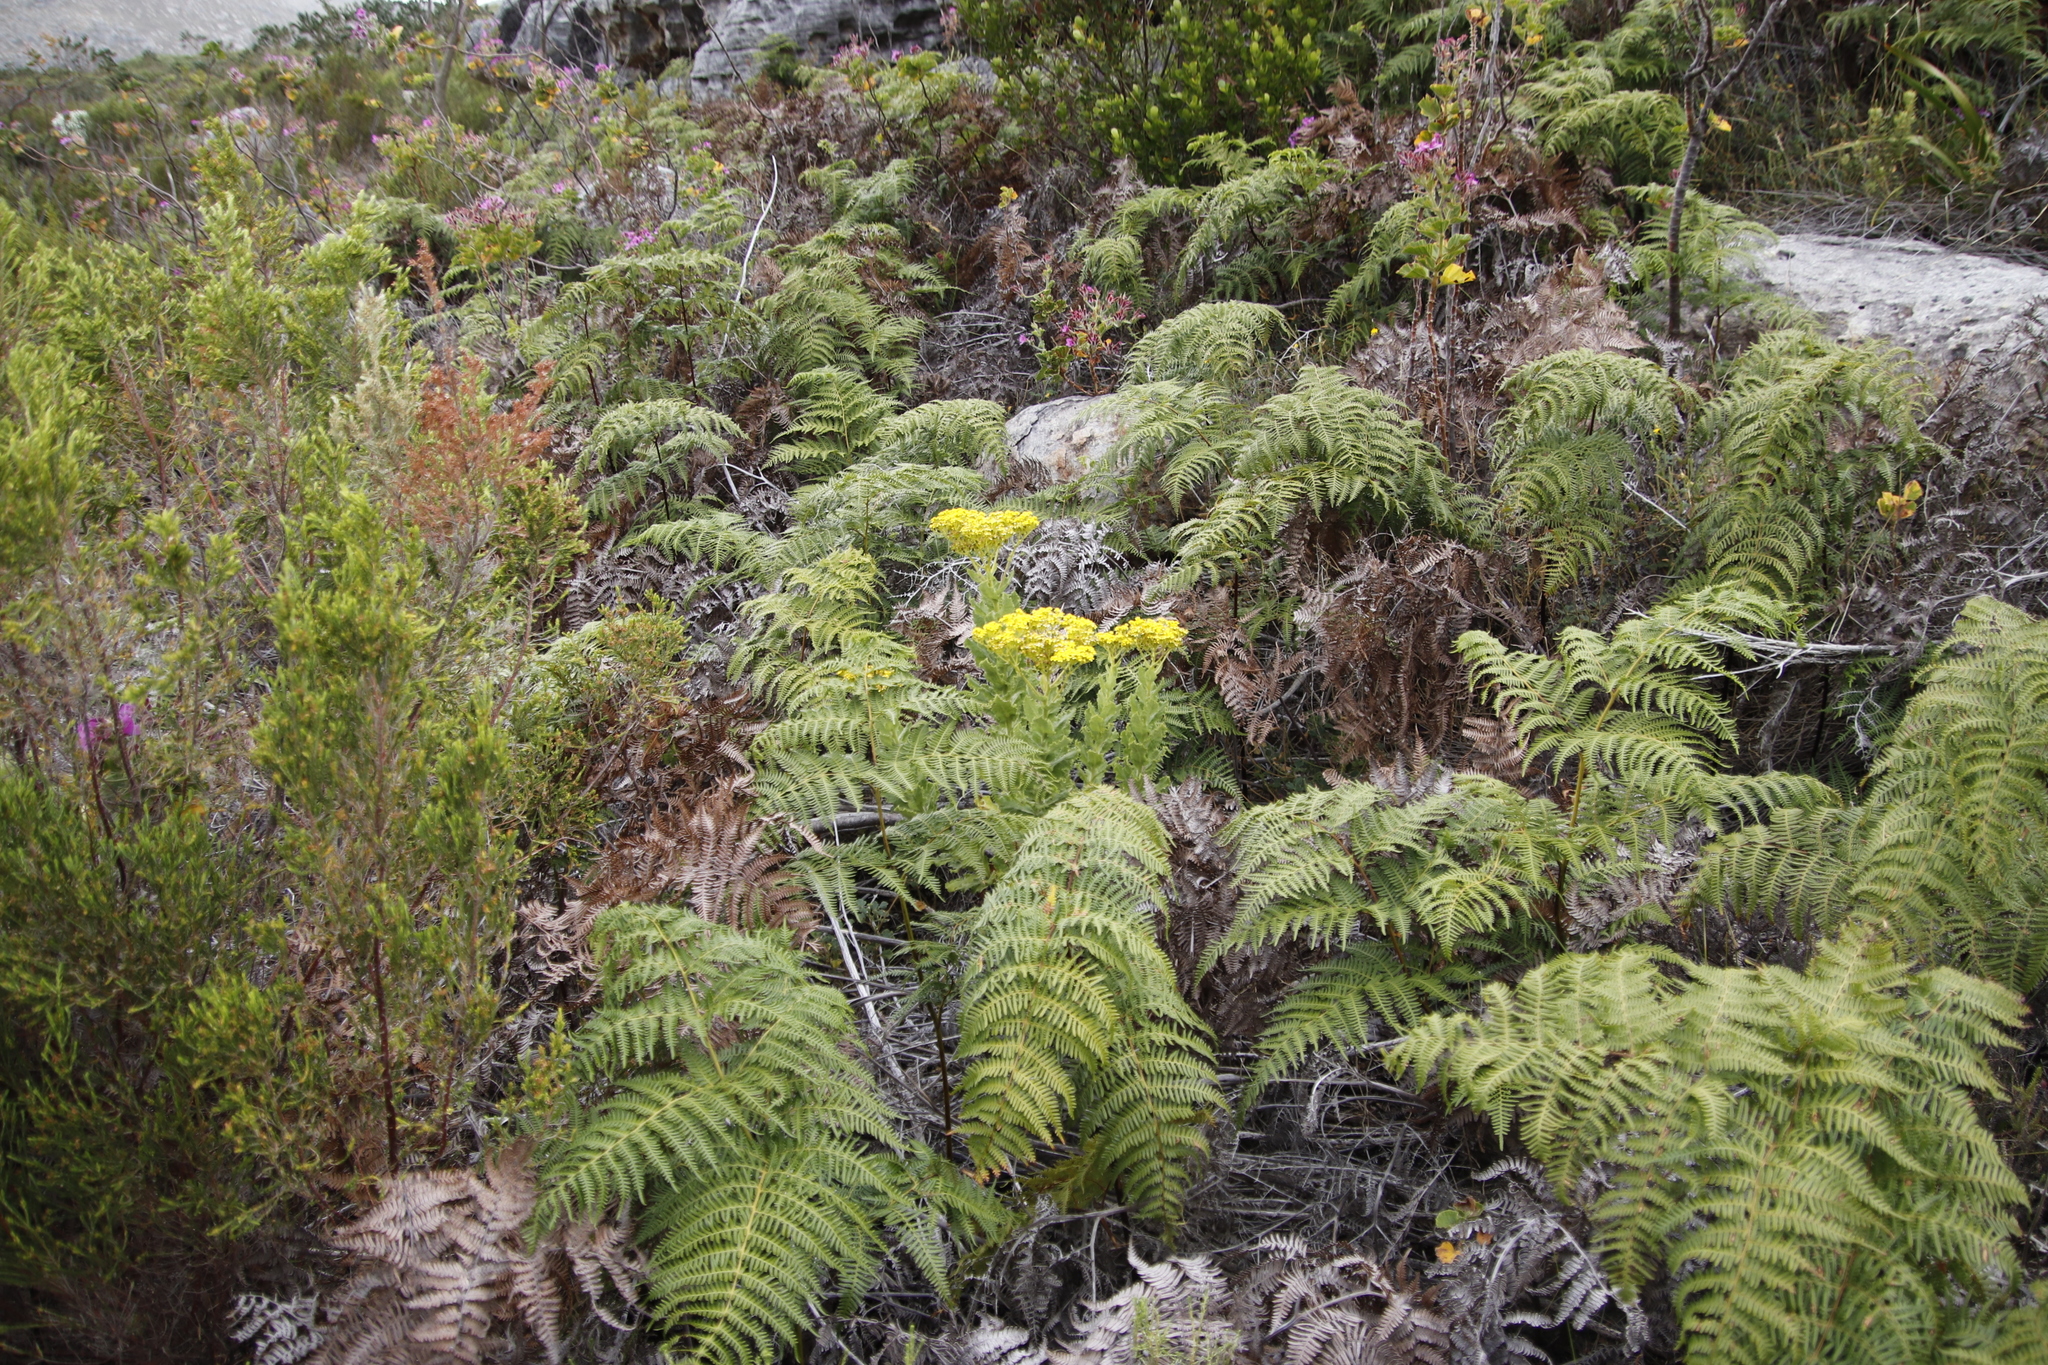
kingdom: Plantae
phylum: Tracheophyta
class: Magnoliopsida
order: Asterales
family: Asteraceae
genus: Senecio
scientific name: Senecio rigidus
